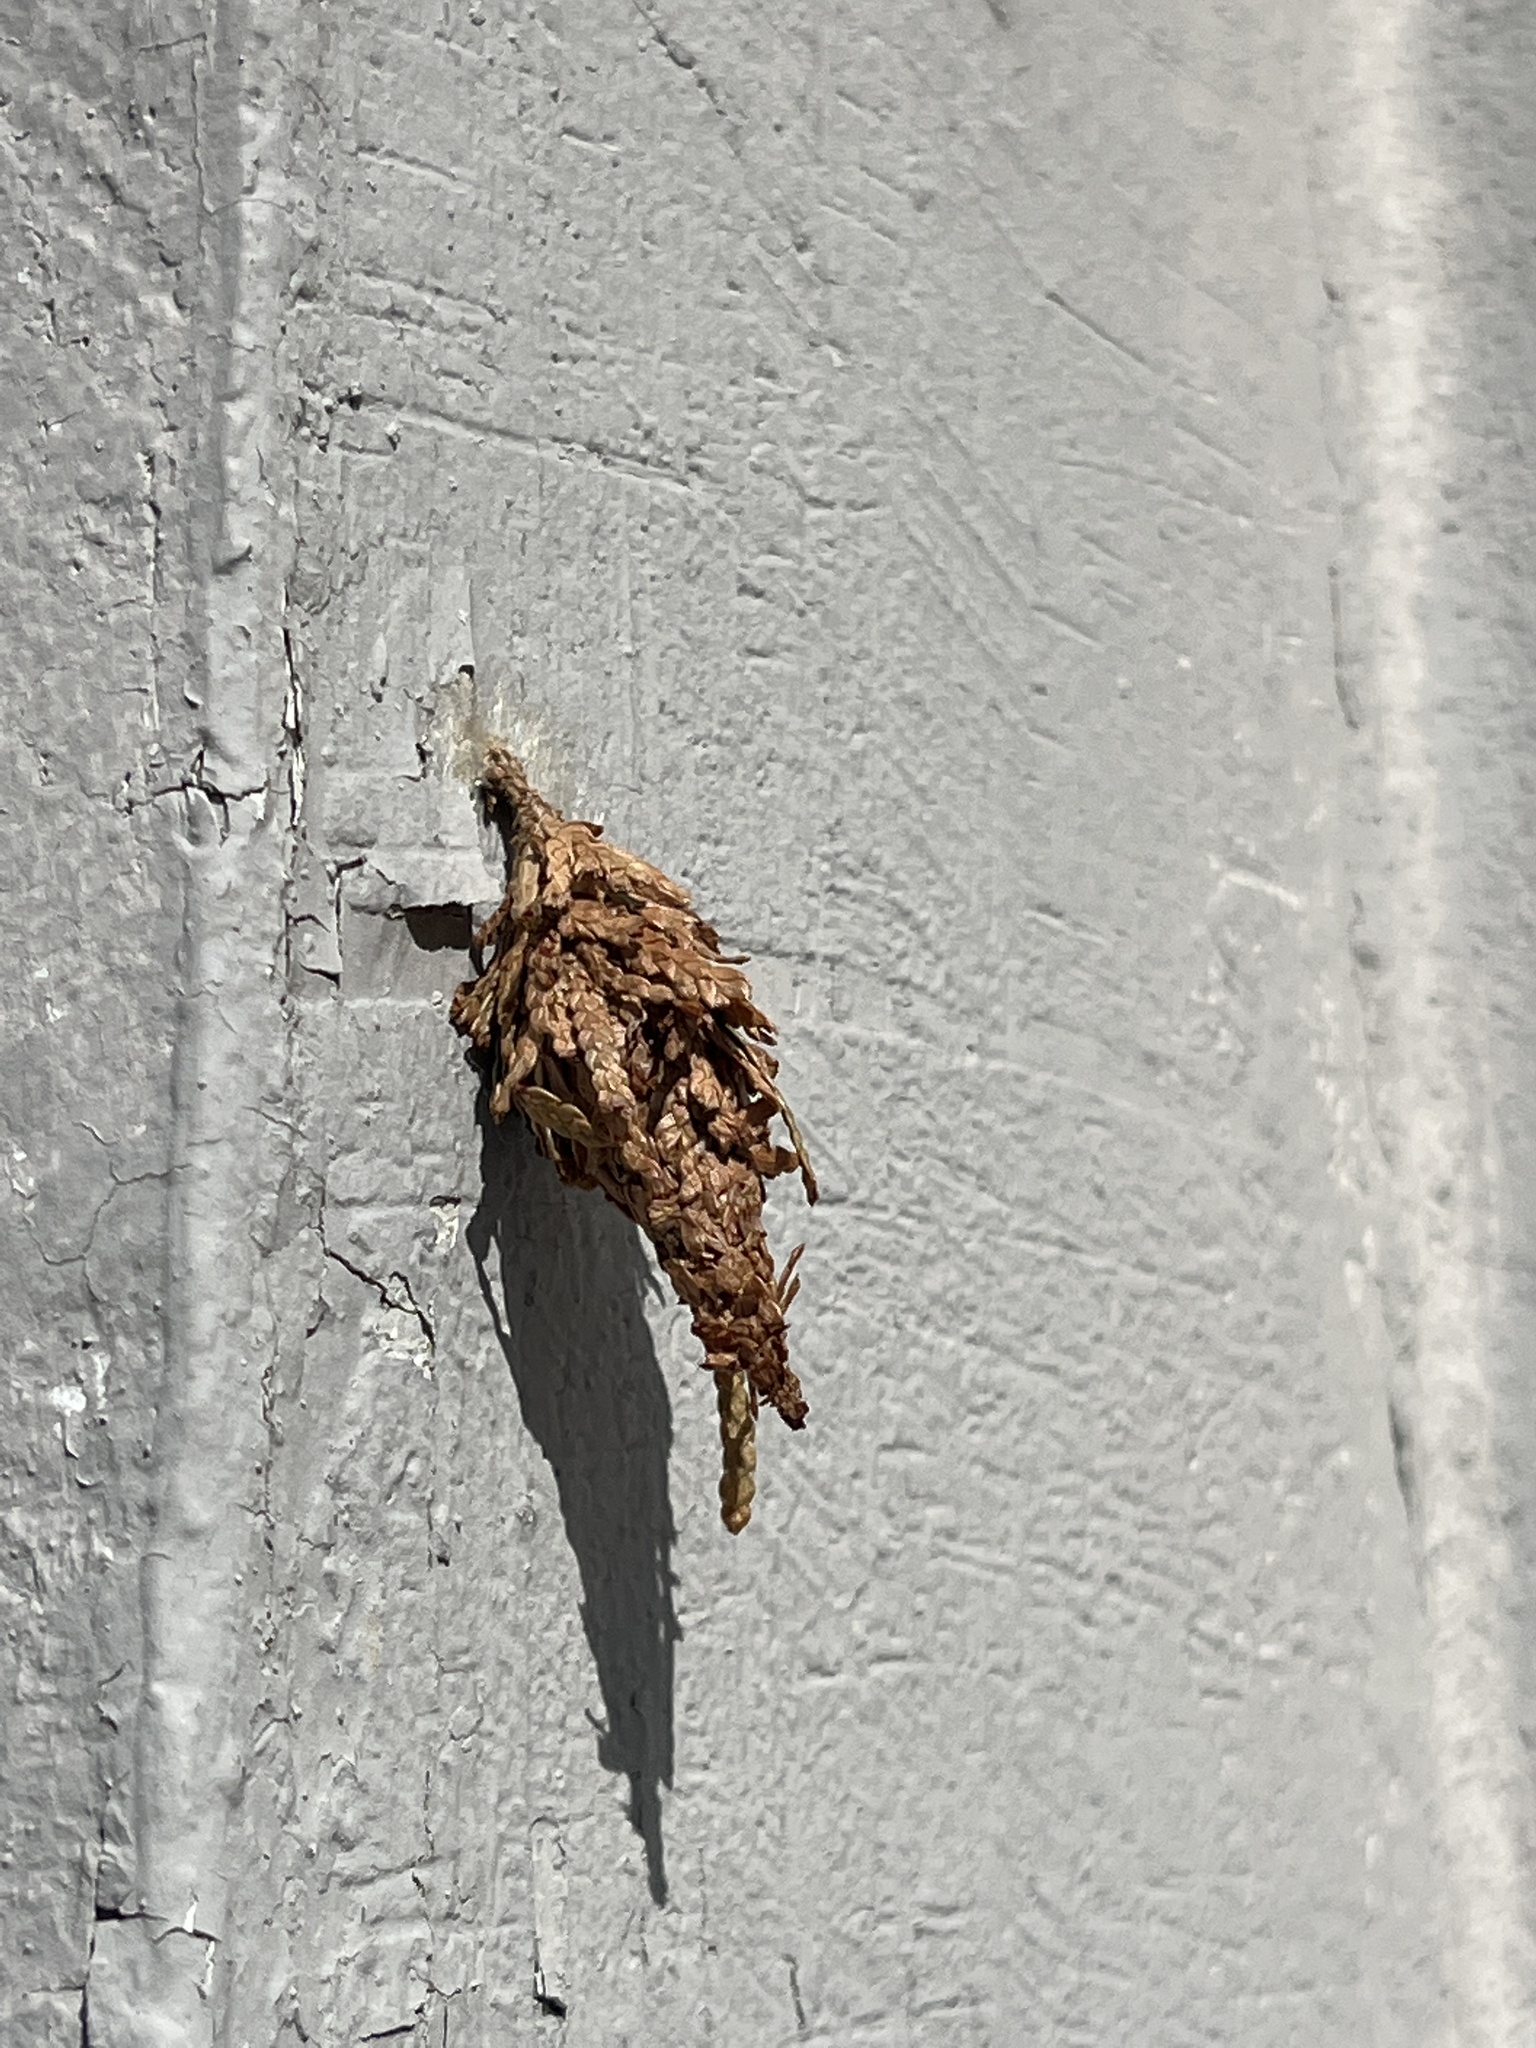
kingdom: Animalia
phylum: Arthropoda
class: Insecta
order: Lepidoptera
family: Psychidae
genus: Thyridopteryx
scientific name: Thyridopteryx ephemeraeformis
